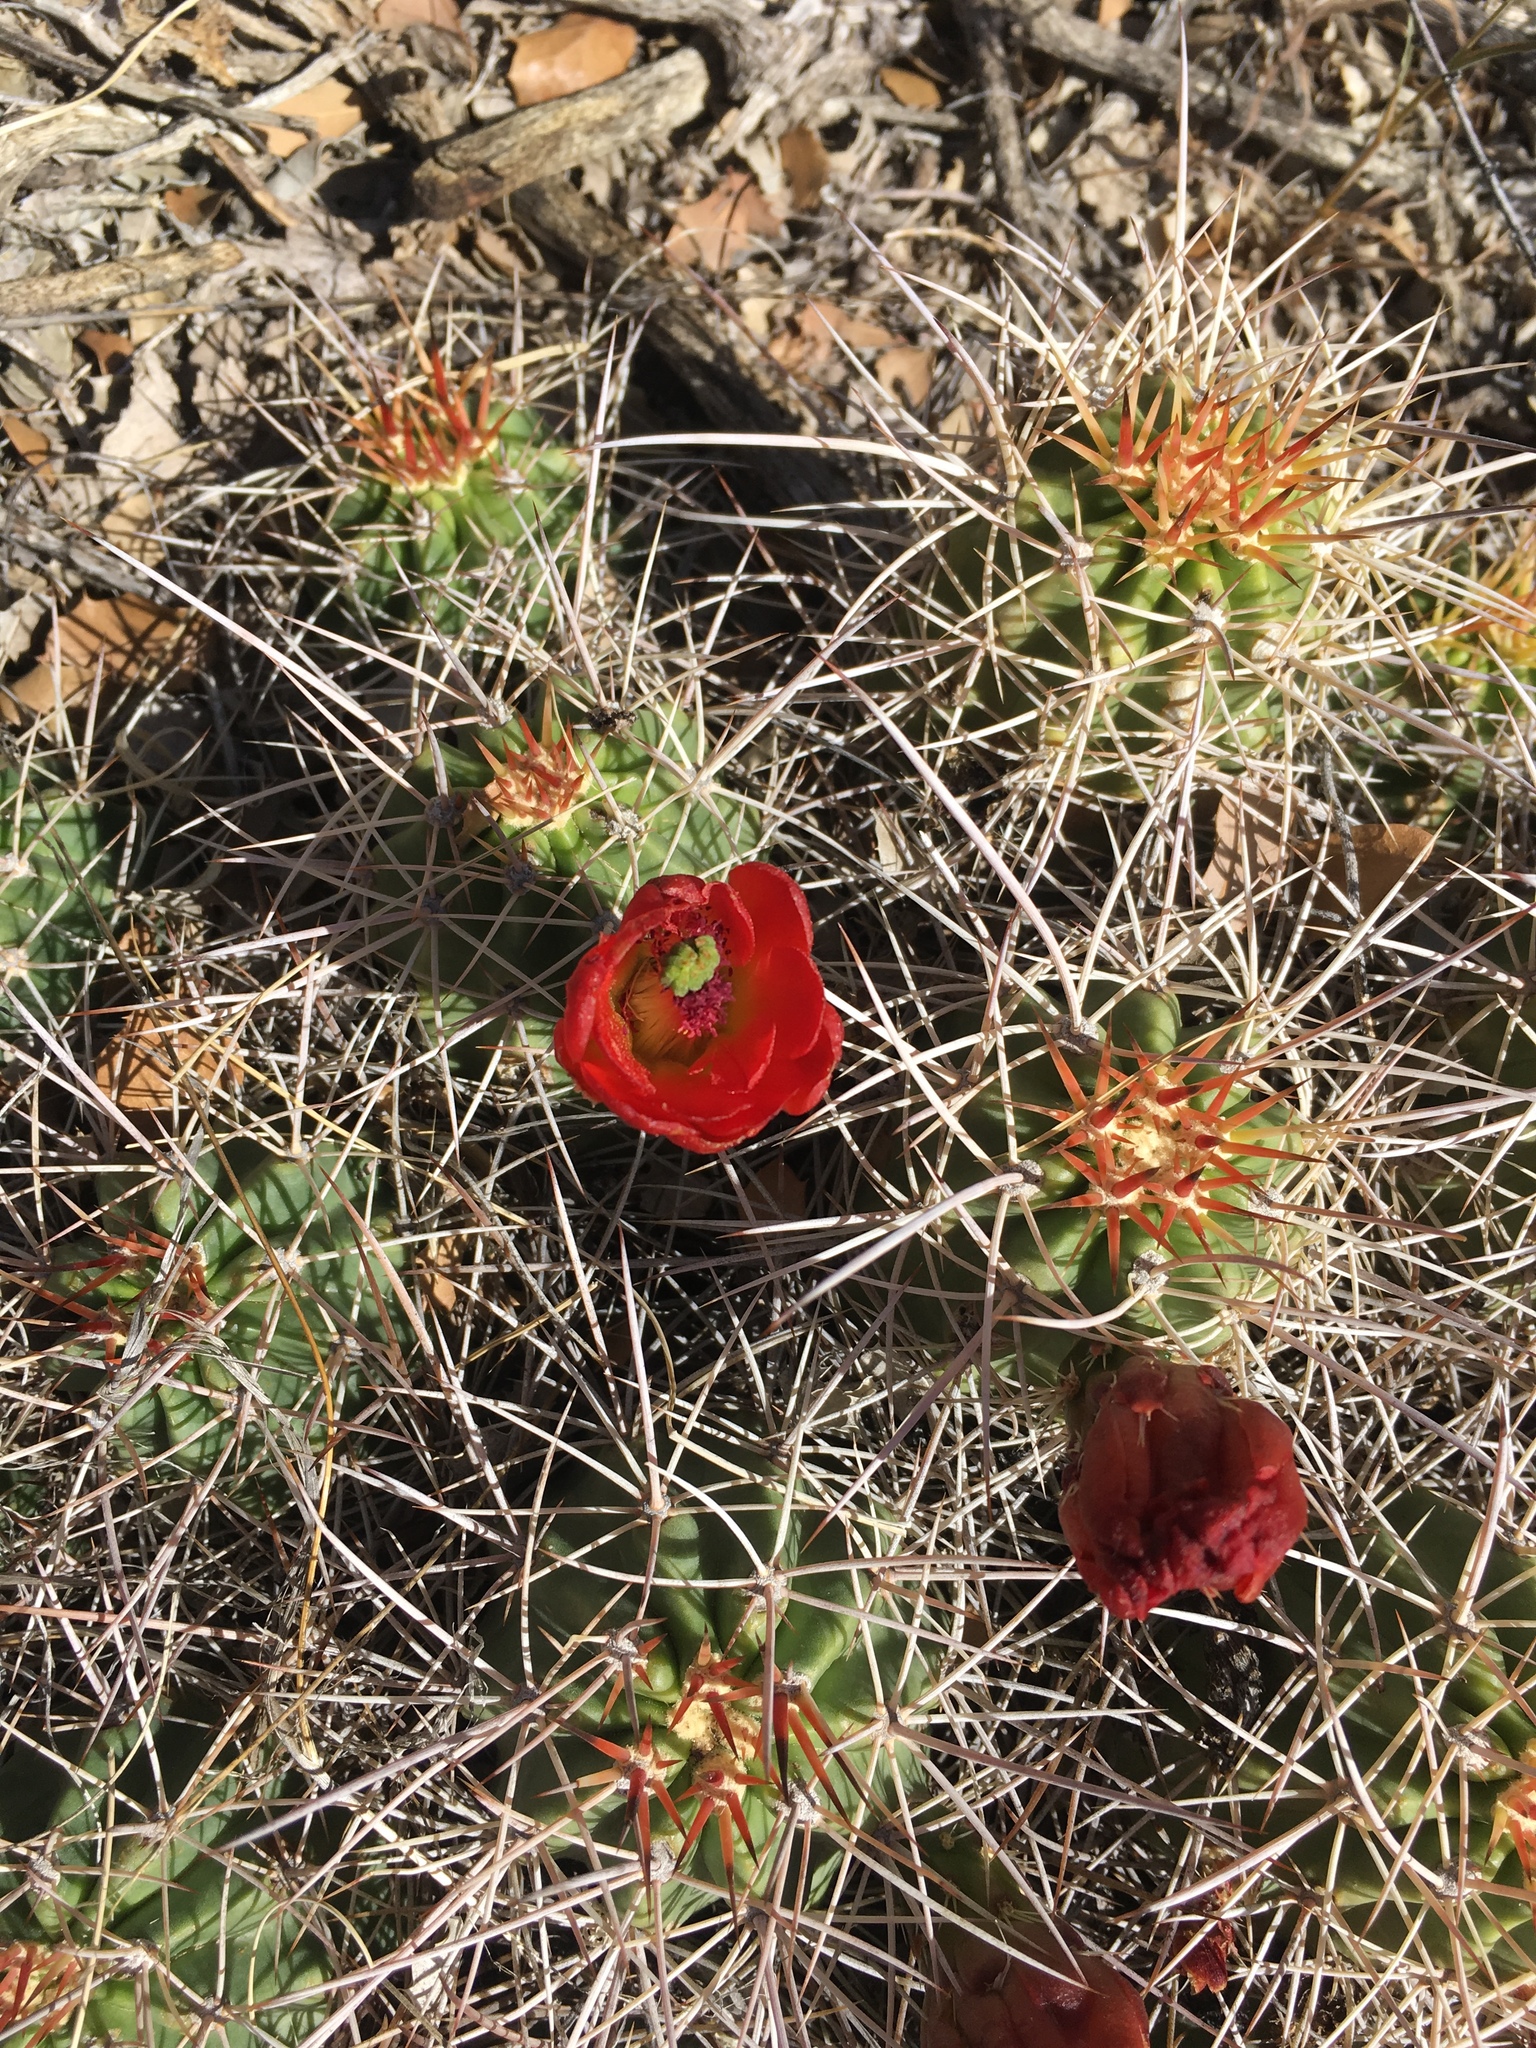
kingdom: Plantae
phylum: Tracheophyta
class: Magnoliopsida
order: Caryophyllales
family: Cactaceae
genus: Echinocereus
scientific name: Echinocereus triglochidiatus
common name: Claretcup hedgehog
